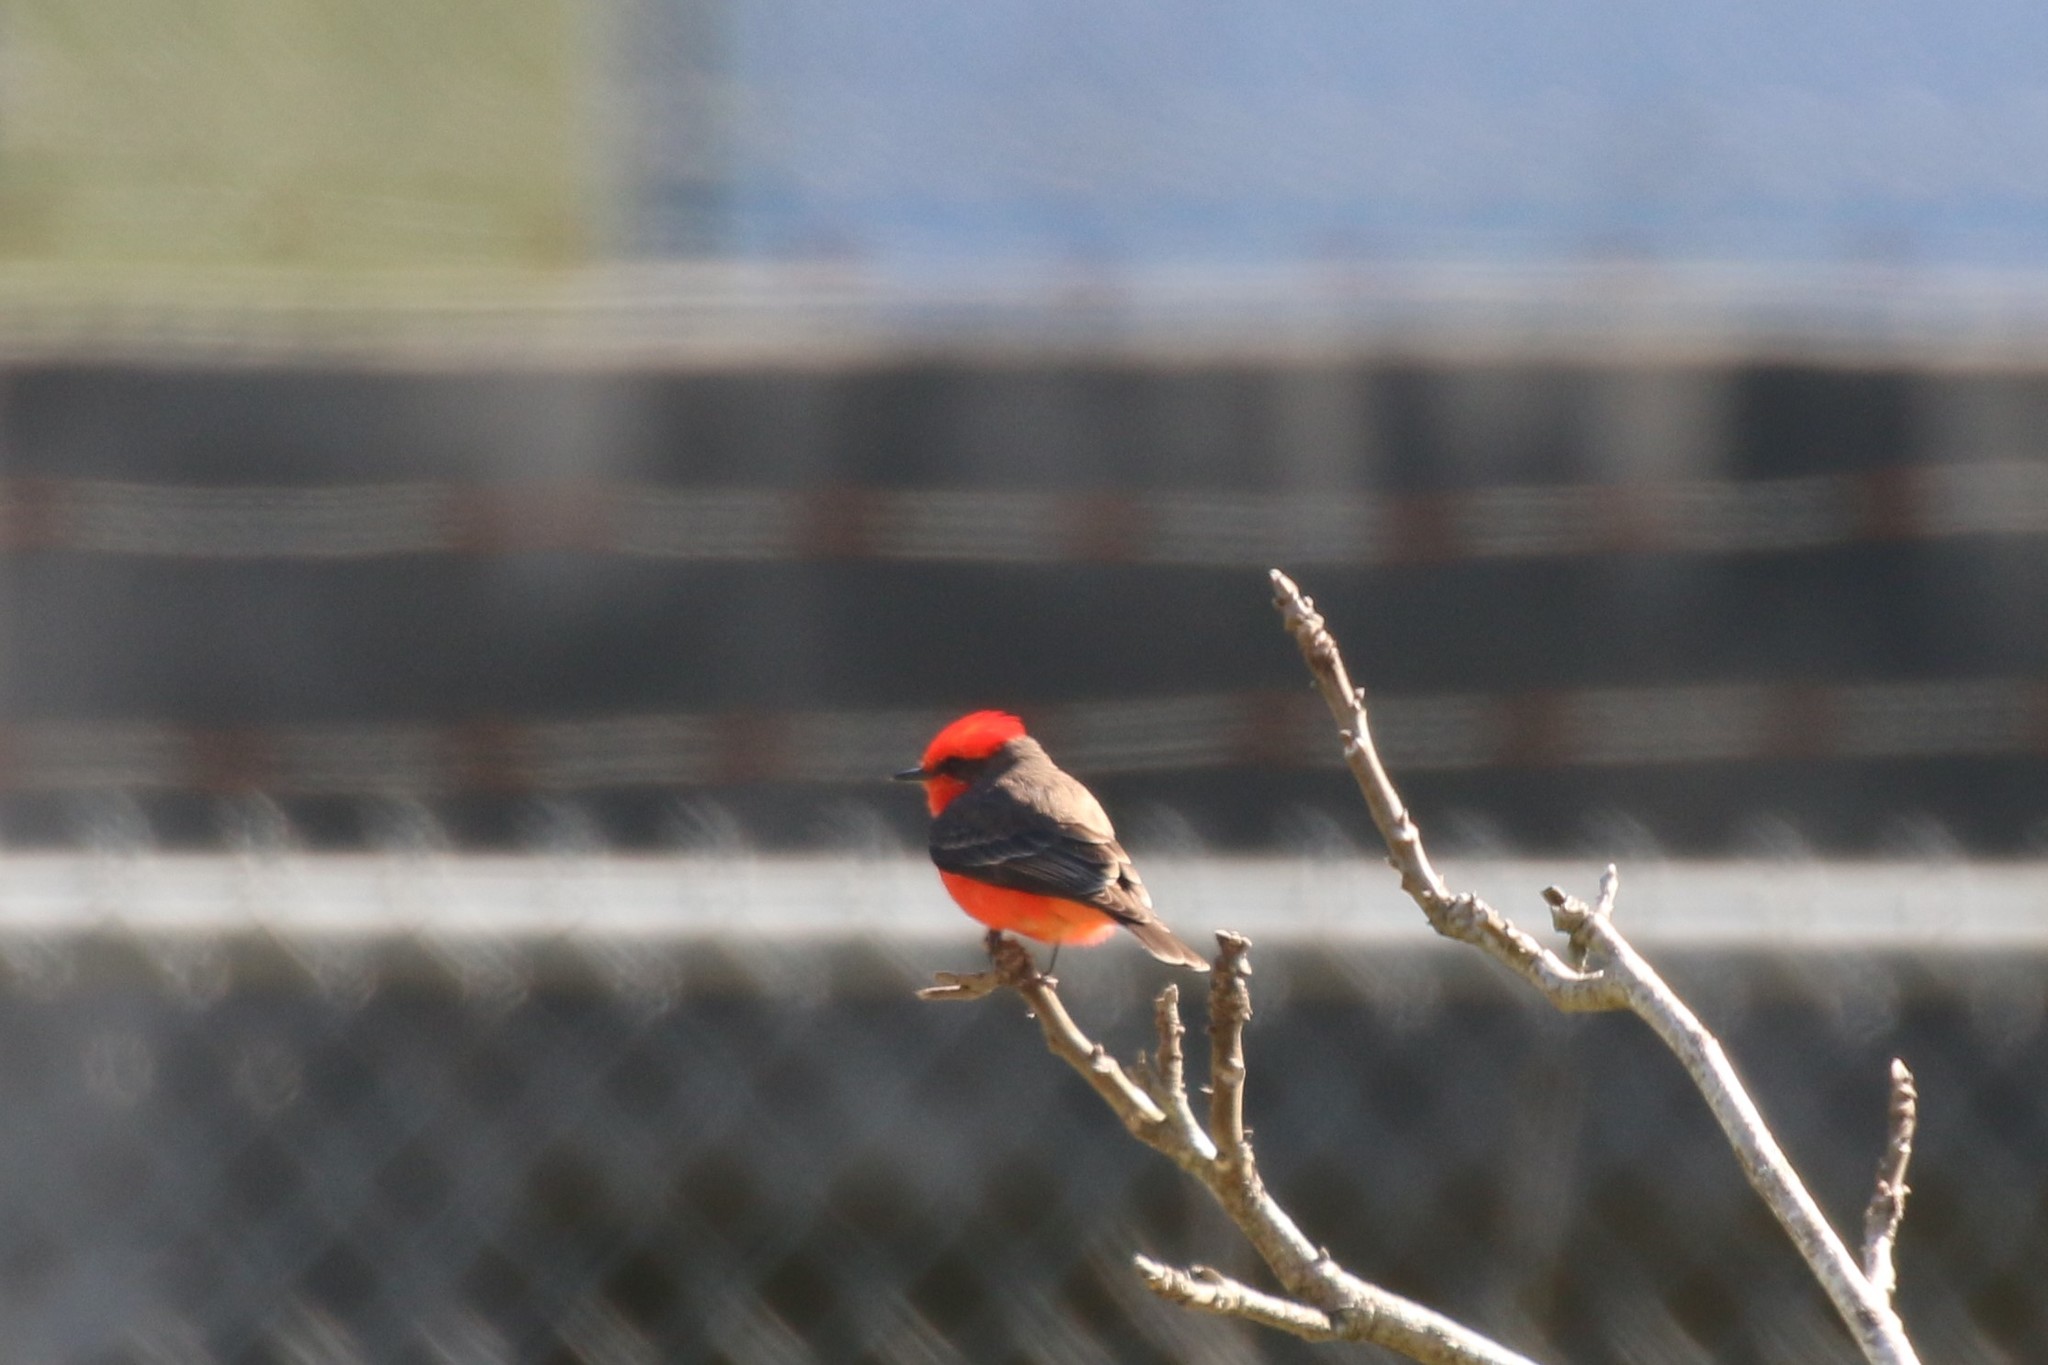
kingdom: Animalia
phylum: Chordata
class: Aves
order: Passeriformes
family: Tyrannidae
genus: Pyrocephalus
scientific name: Pyrocephalus rubinus
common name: Vermilion flycatcher
